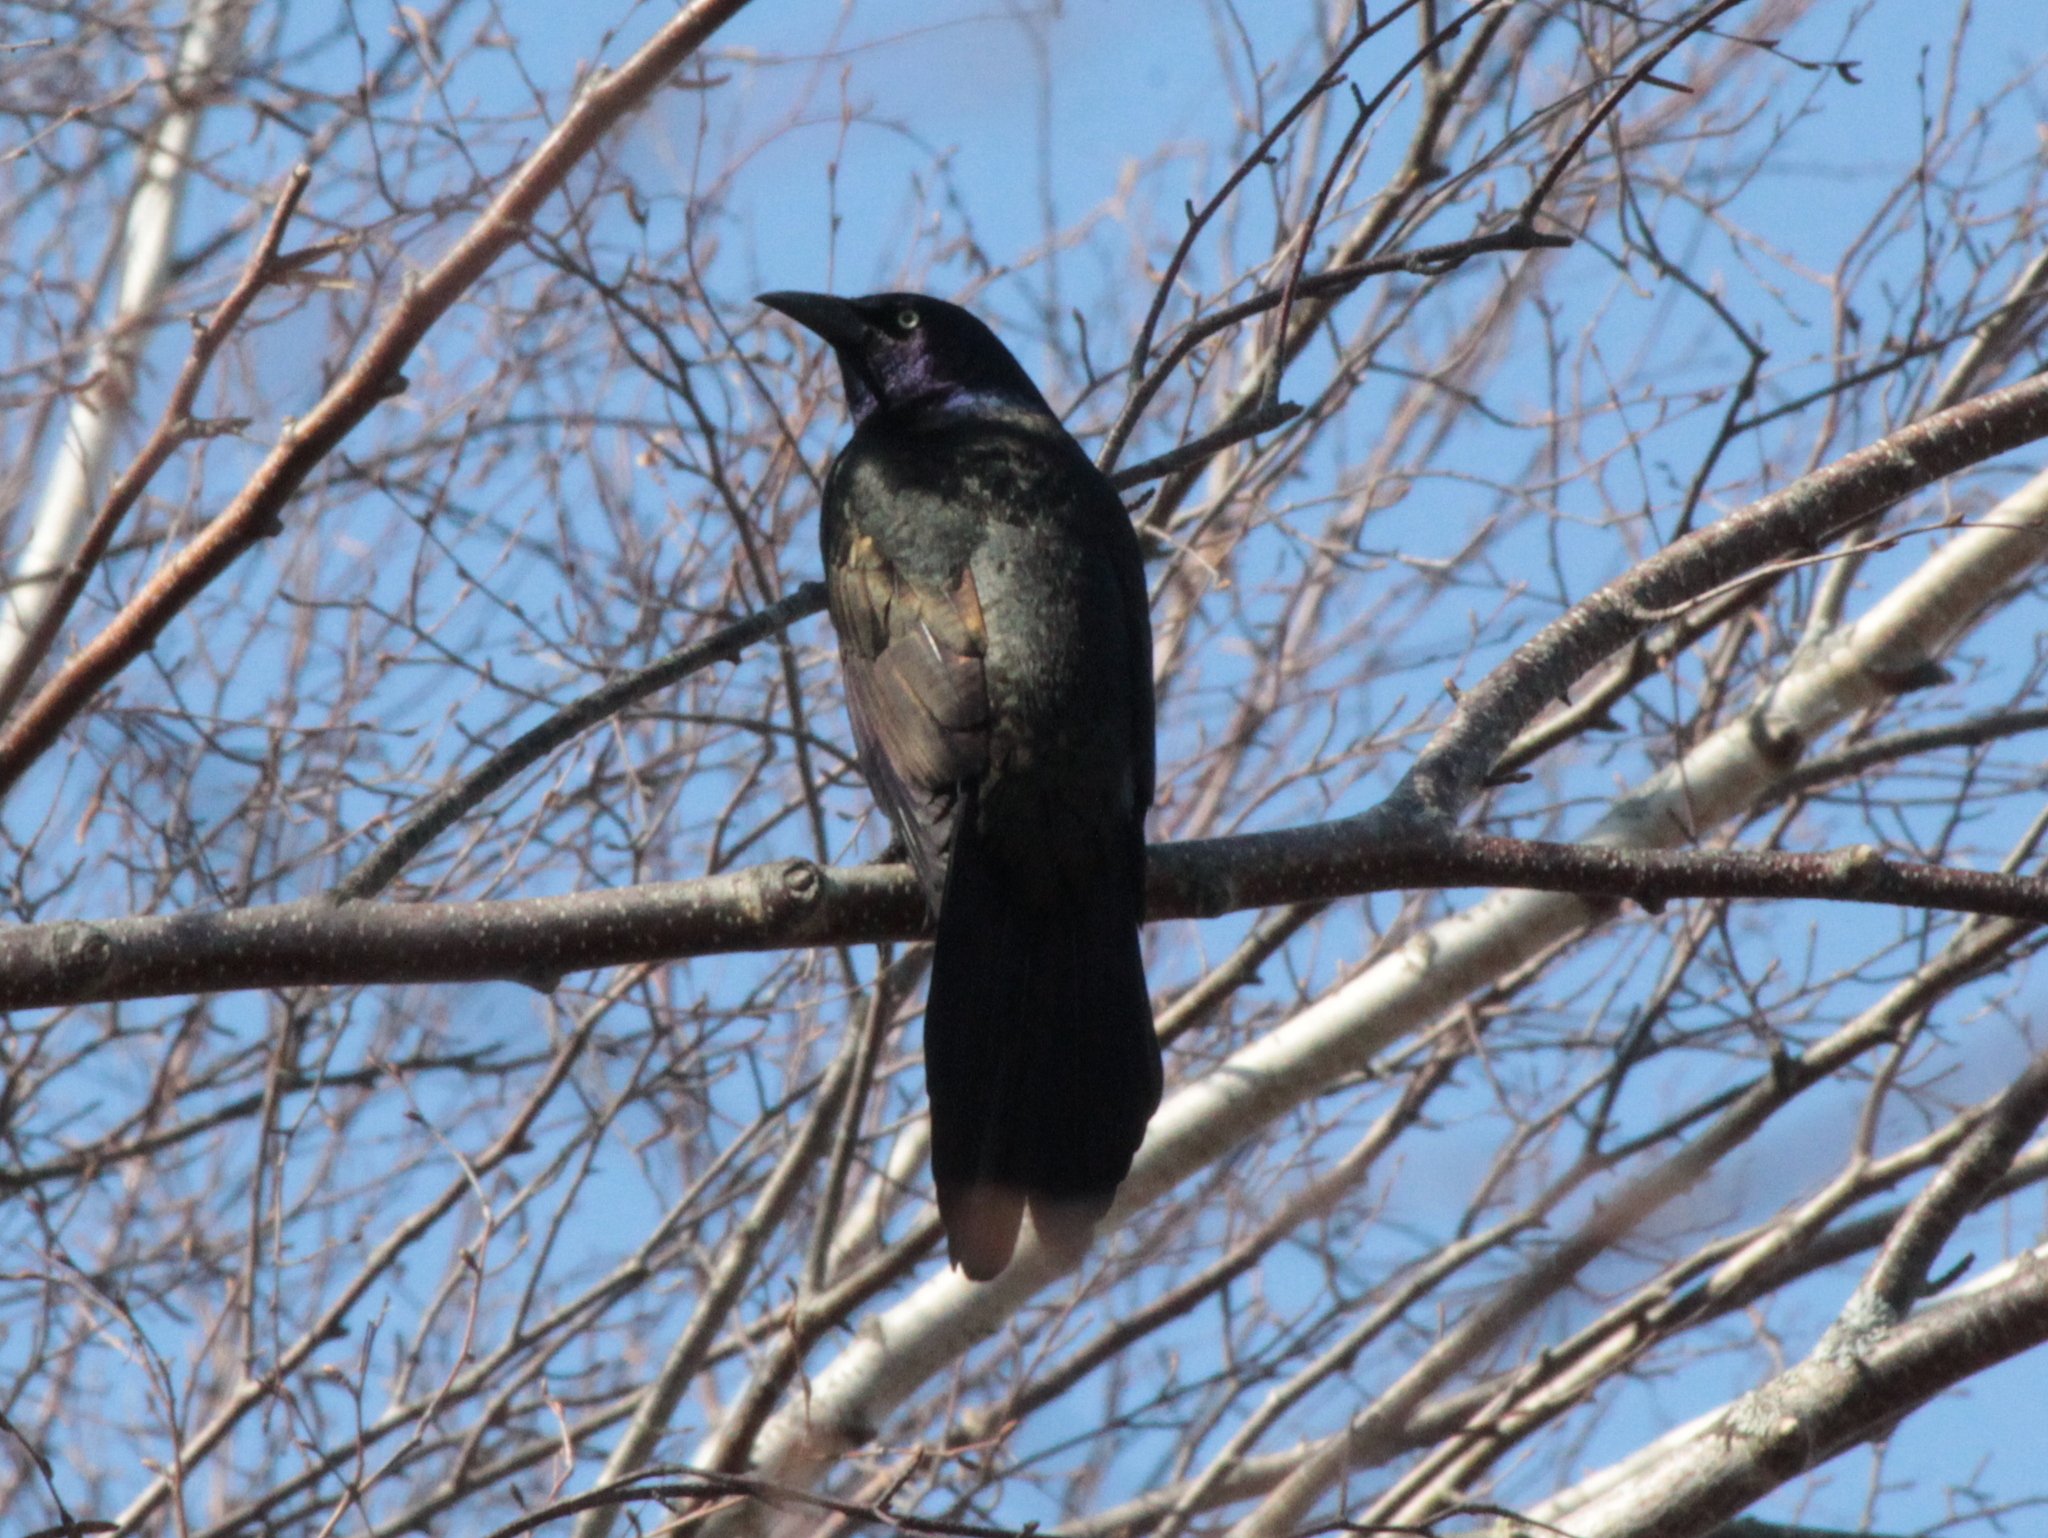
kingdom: Animalia
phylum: Chordata
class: Aves
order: Passeriformes
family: Icteridae
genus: Quiscalus
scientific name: Quiscalus quiscula
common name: Common grackle
